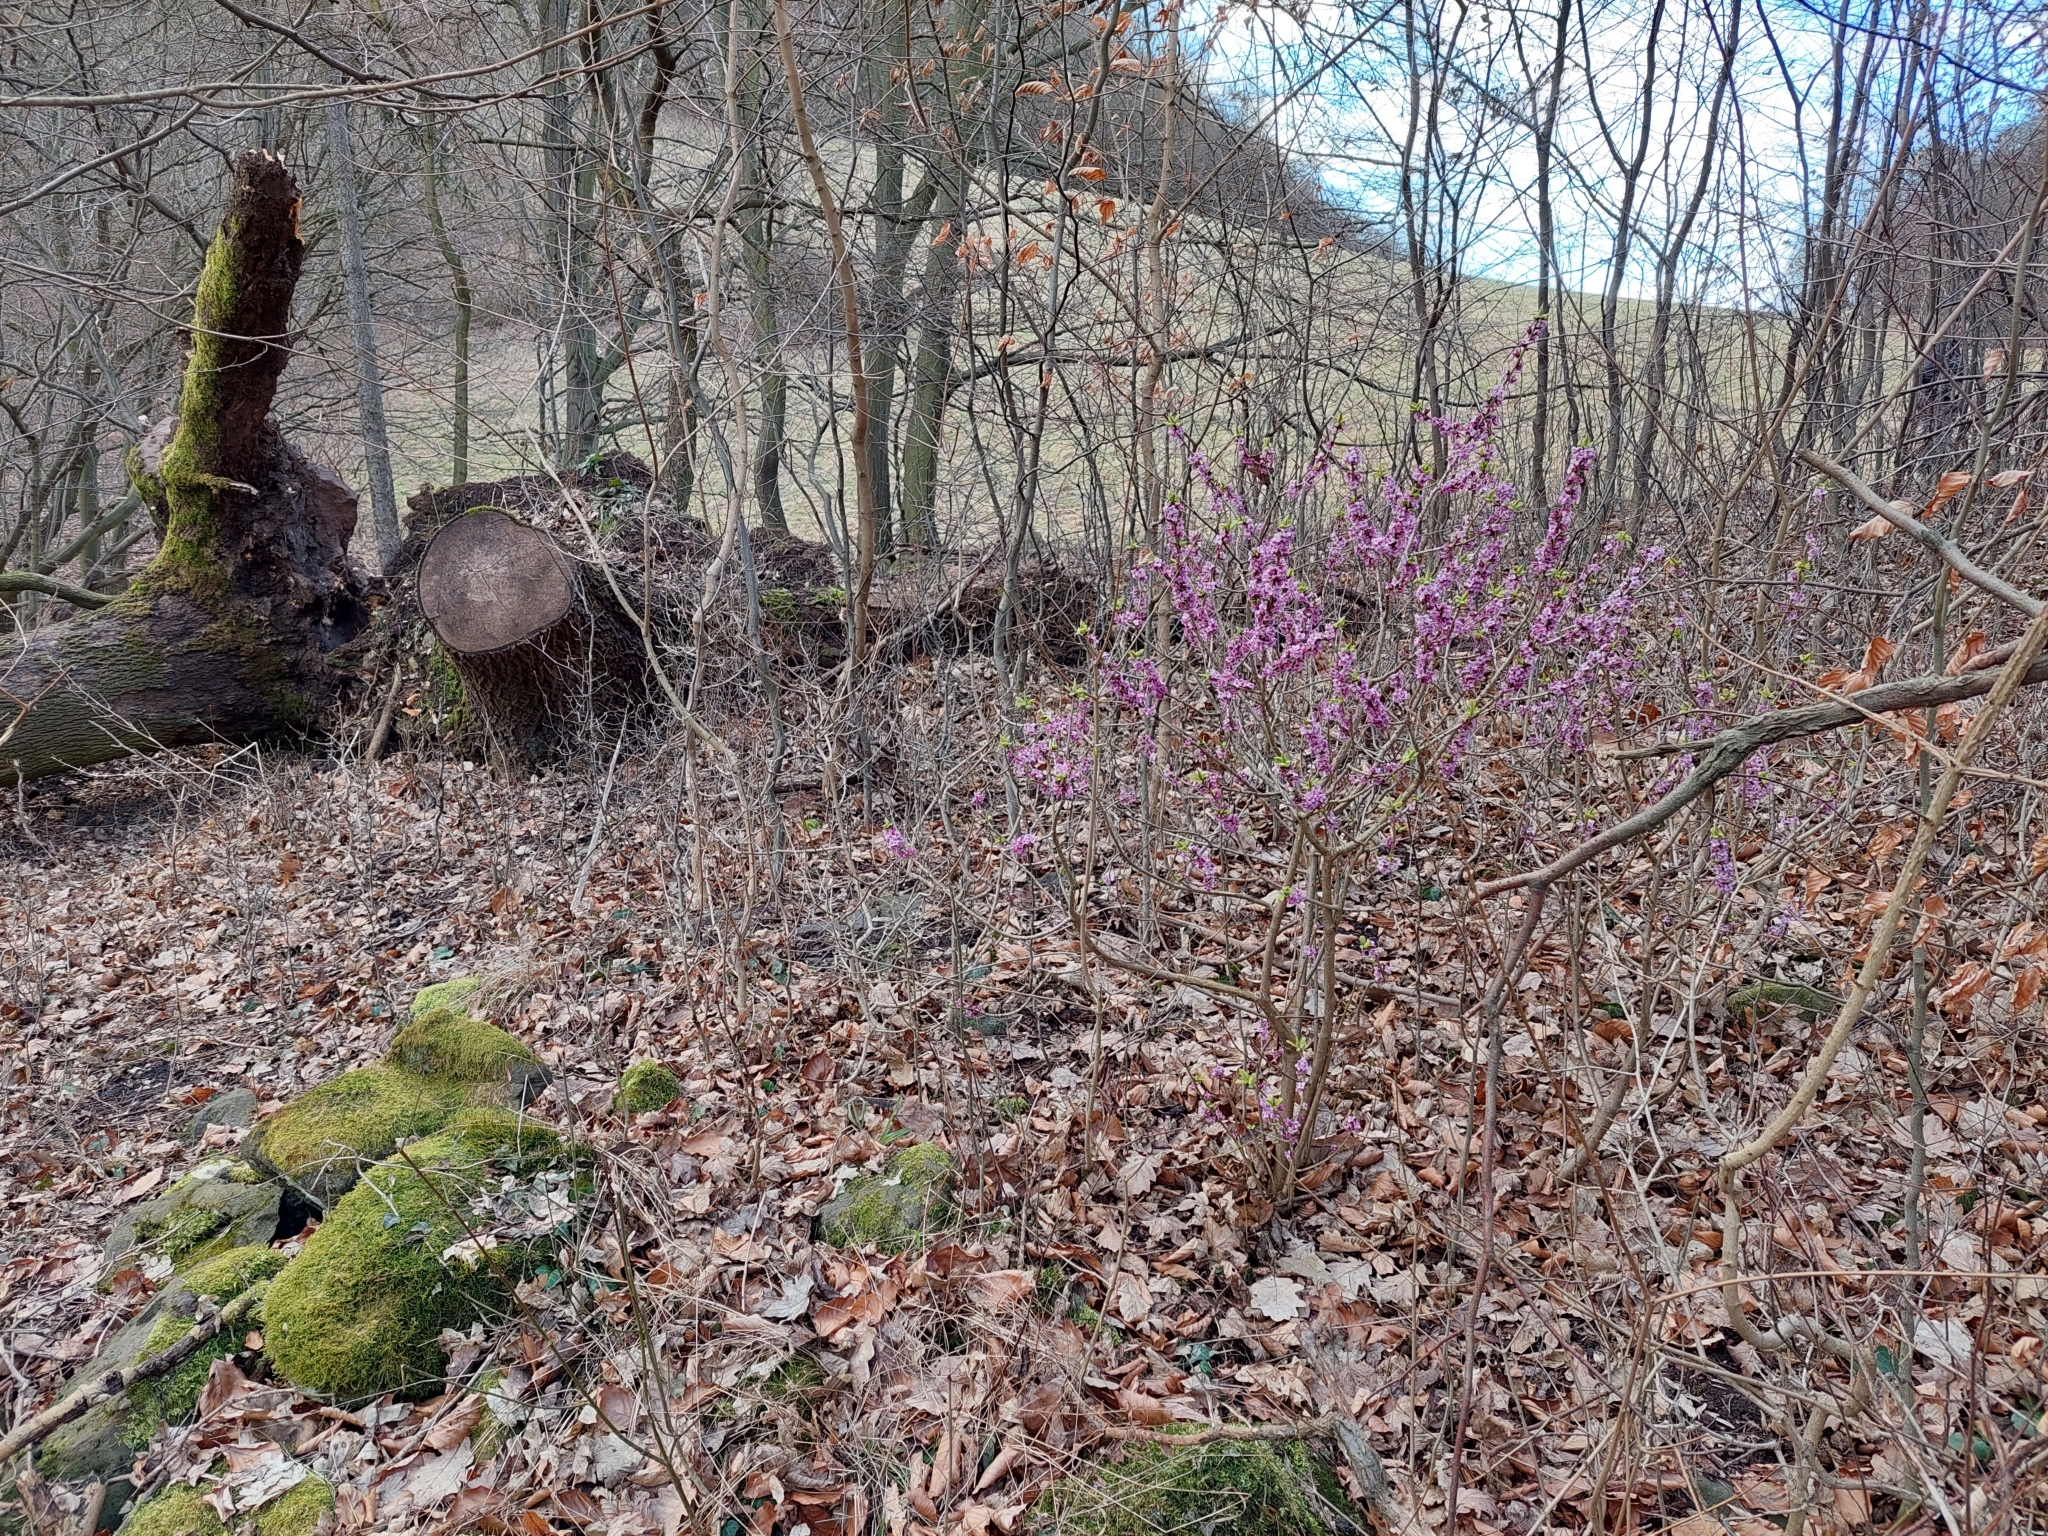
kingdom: Plantae
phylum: Tracheophyta
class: Magnoliopsida
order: Malvales
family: Thymelaeaceae
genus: Daphne
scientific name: Daphne mezereum
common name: Mezereon
